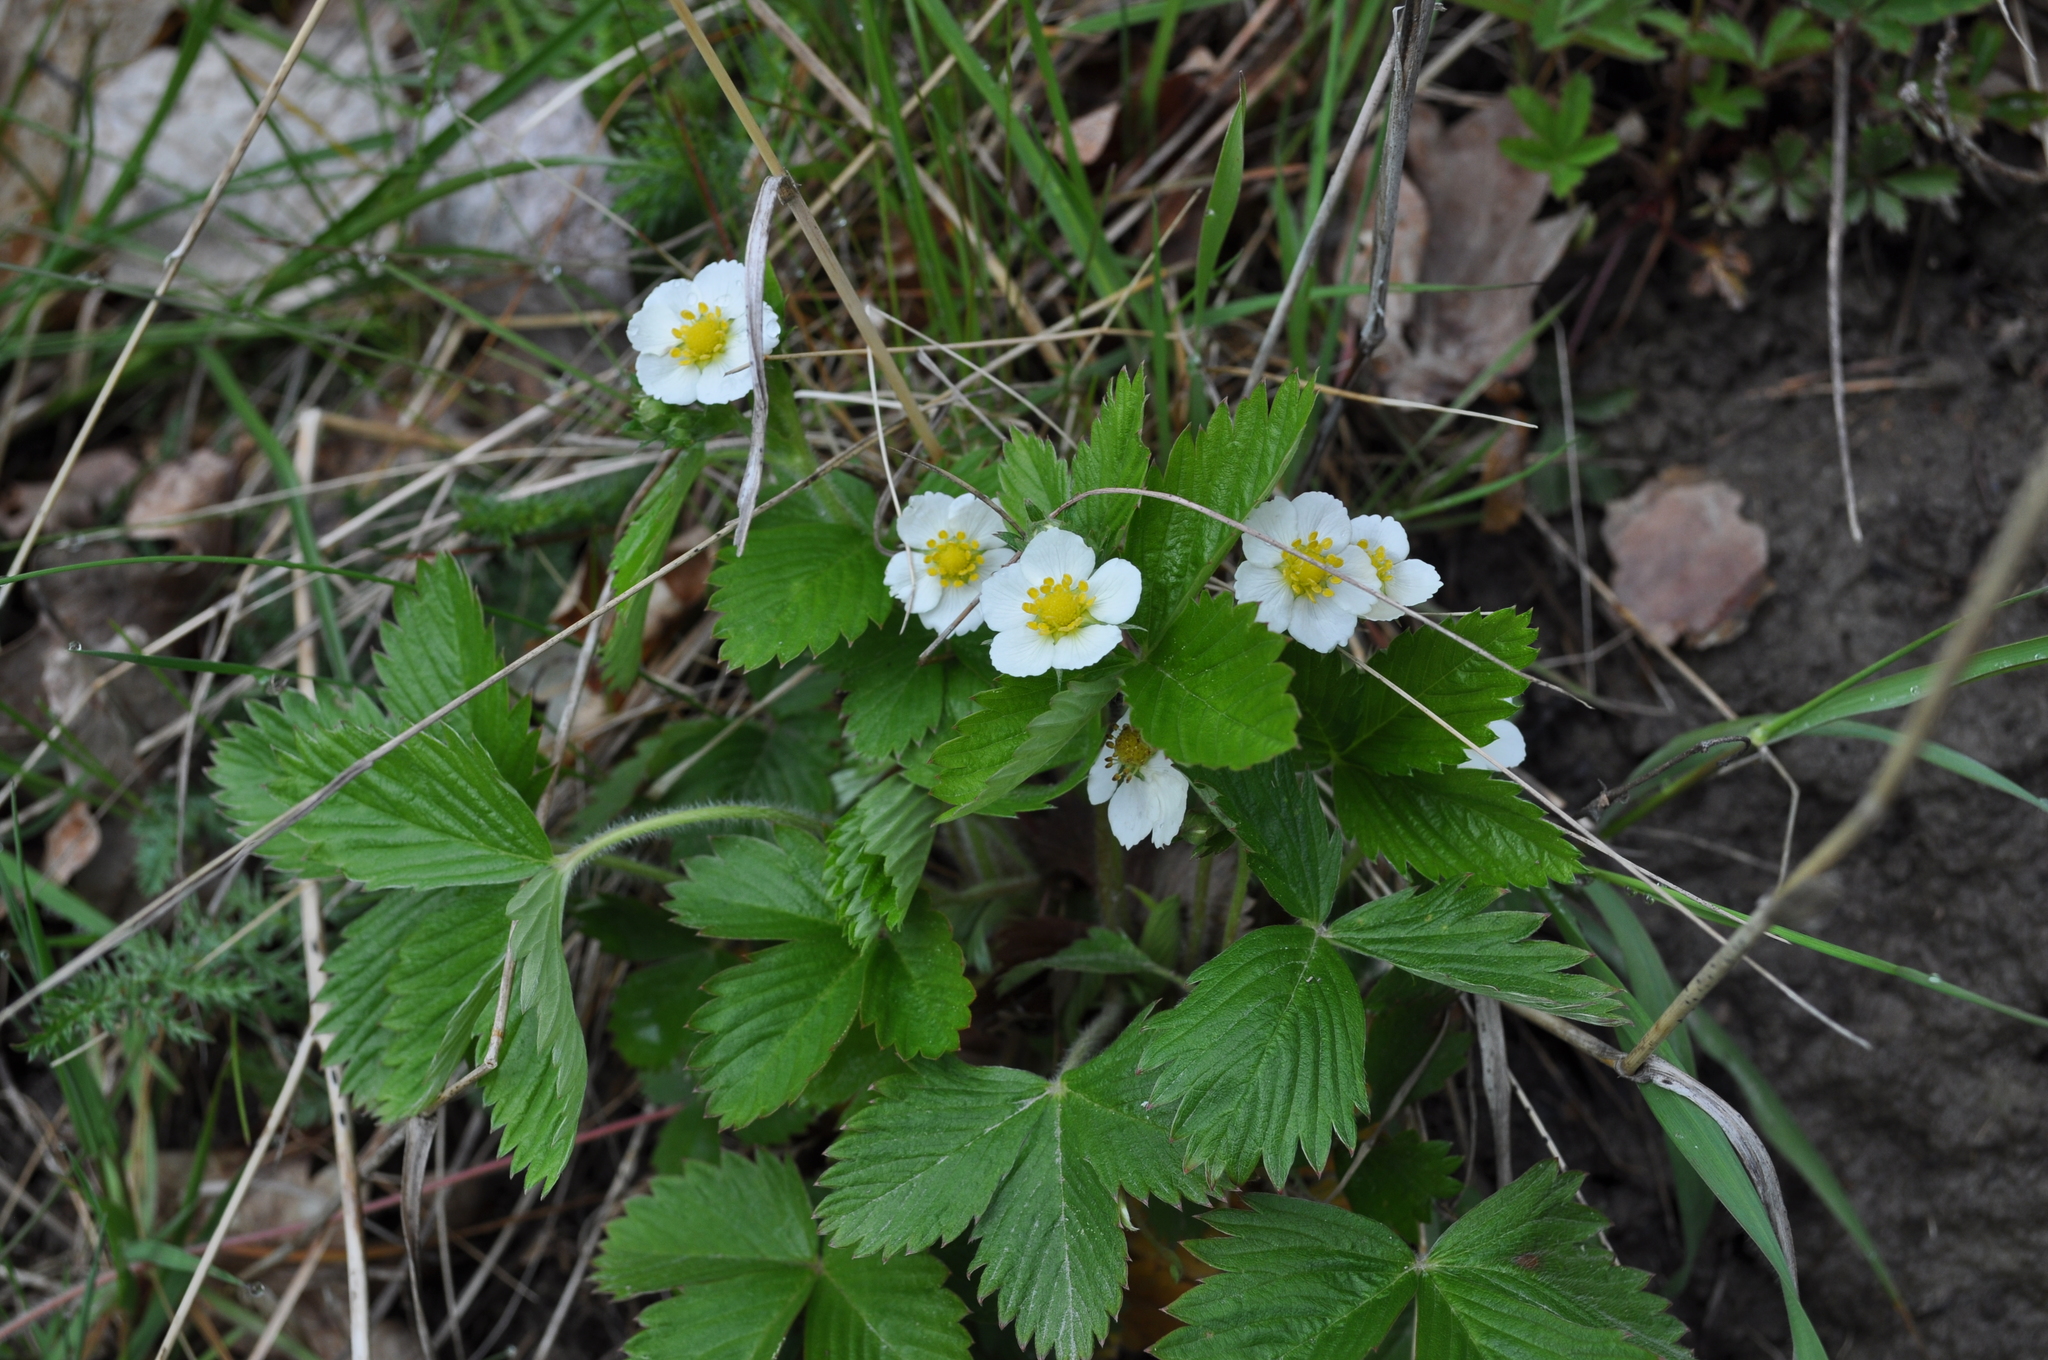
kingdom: Plantae
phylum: Tracheophyta
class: Magnoliopsida
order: Rosales
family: Rosaceae
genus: Fragaria
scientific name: Fragaria vesca
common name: Wild strawberry
